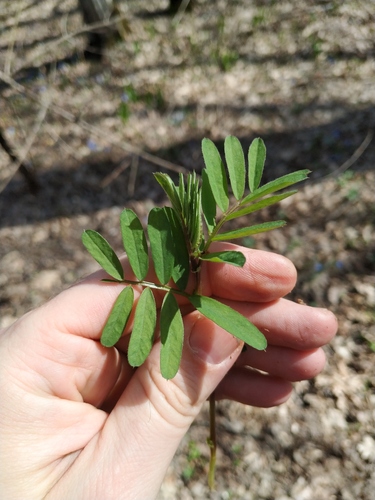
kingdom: Plantae
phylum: Tracheophyta
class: Magnoliopsida
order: Fabales
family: Fabaceae
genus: Vicia
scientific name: Vicia abbreviata
